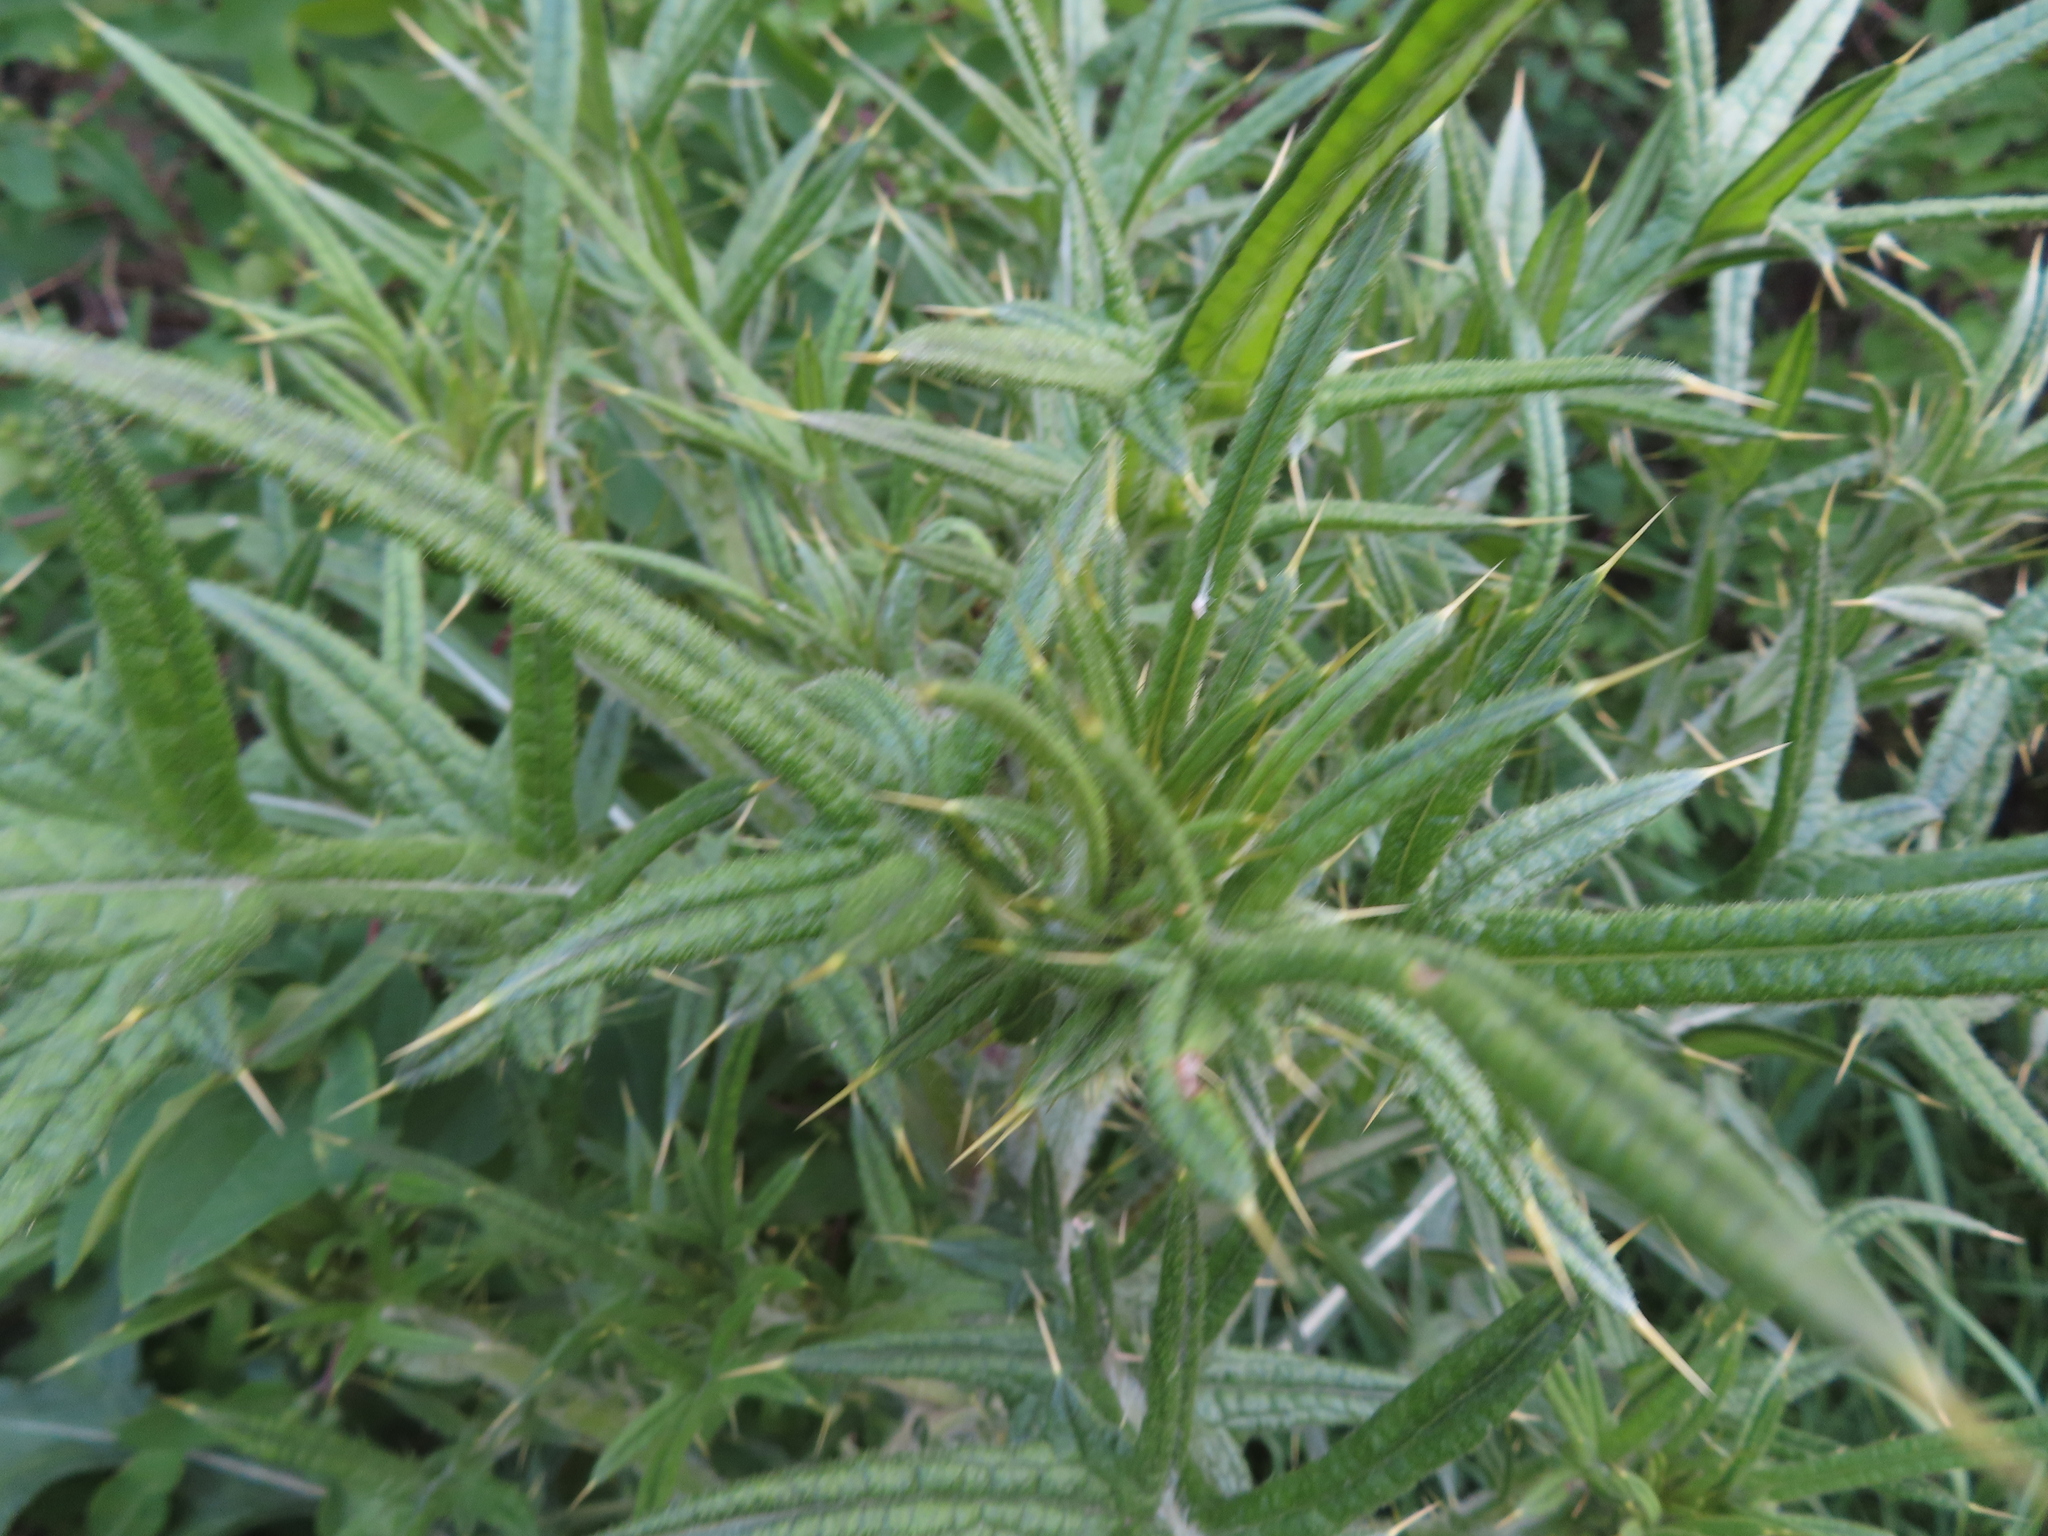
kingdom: Plantae
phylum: Tracheophyta
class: Magnoliopsida
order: Asterales
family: Asteraceae
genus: Cirsium
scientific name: Cirsium vulgare
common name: Bull thistle
